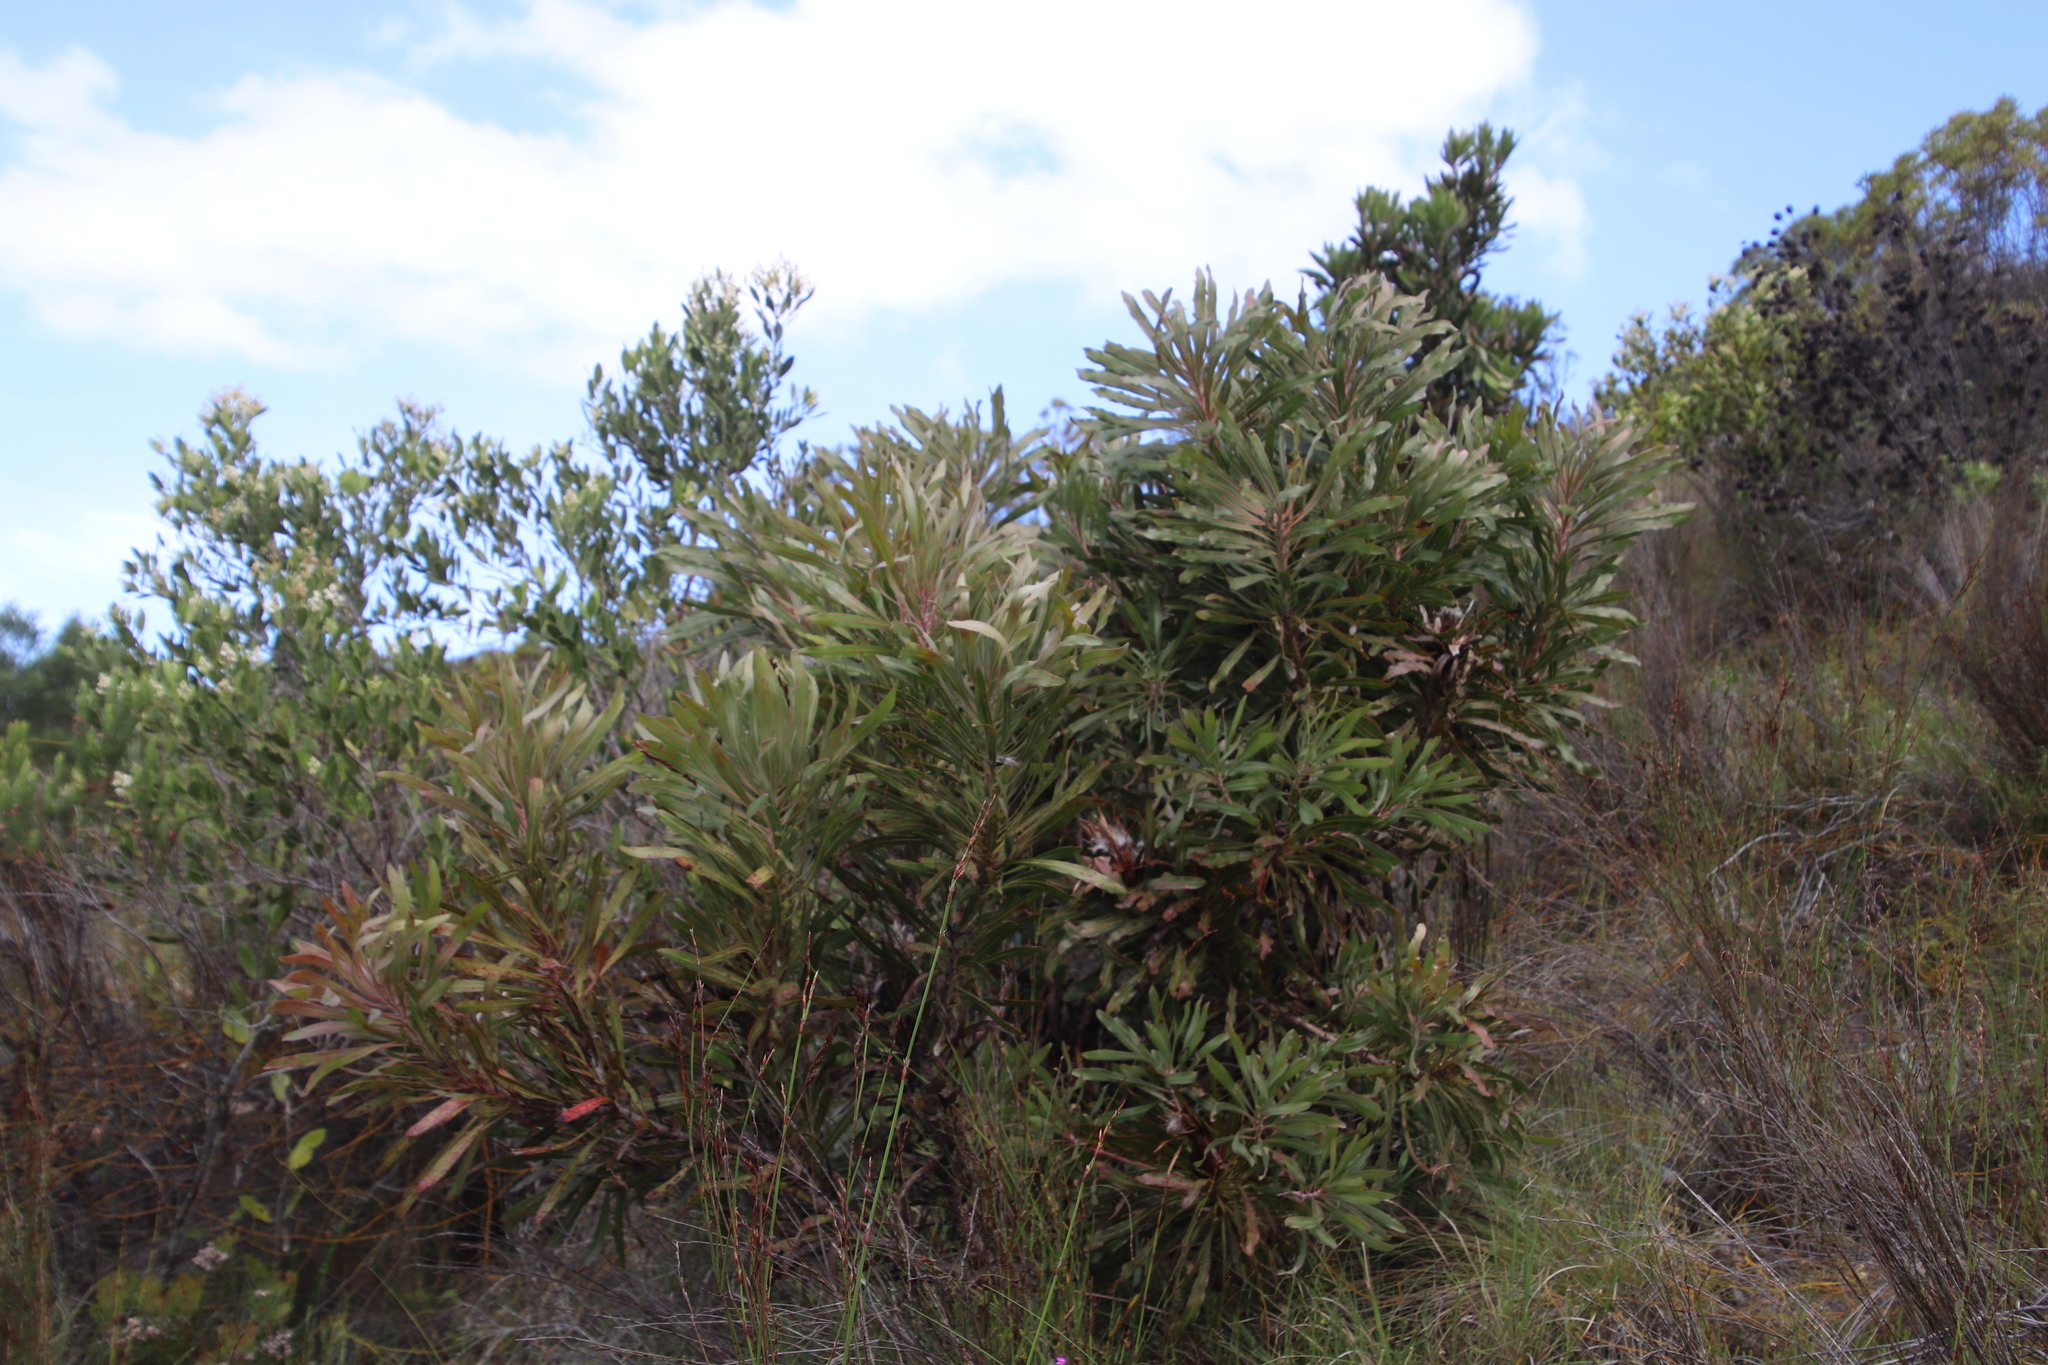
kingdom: Plantae
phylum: Tracheophyta
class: Magnoliopsida
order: Proteales
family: Proteaceae
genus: Protea
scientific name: Protea longifolia
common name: Long-leaf sugarbush
